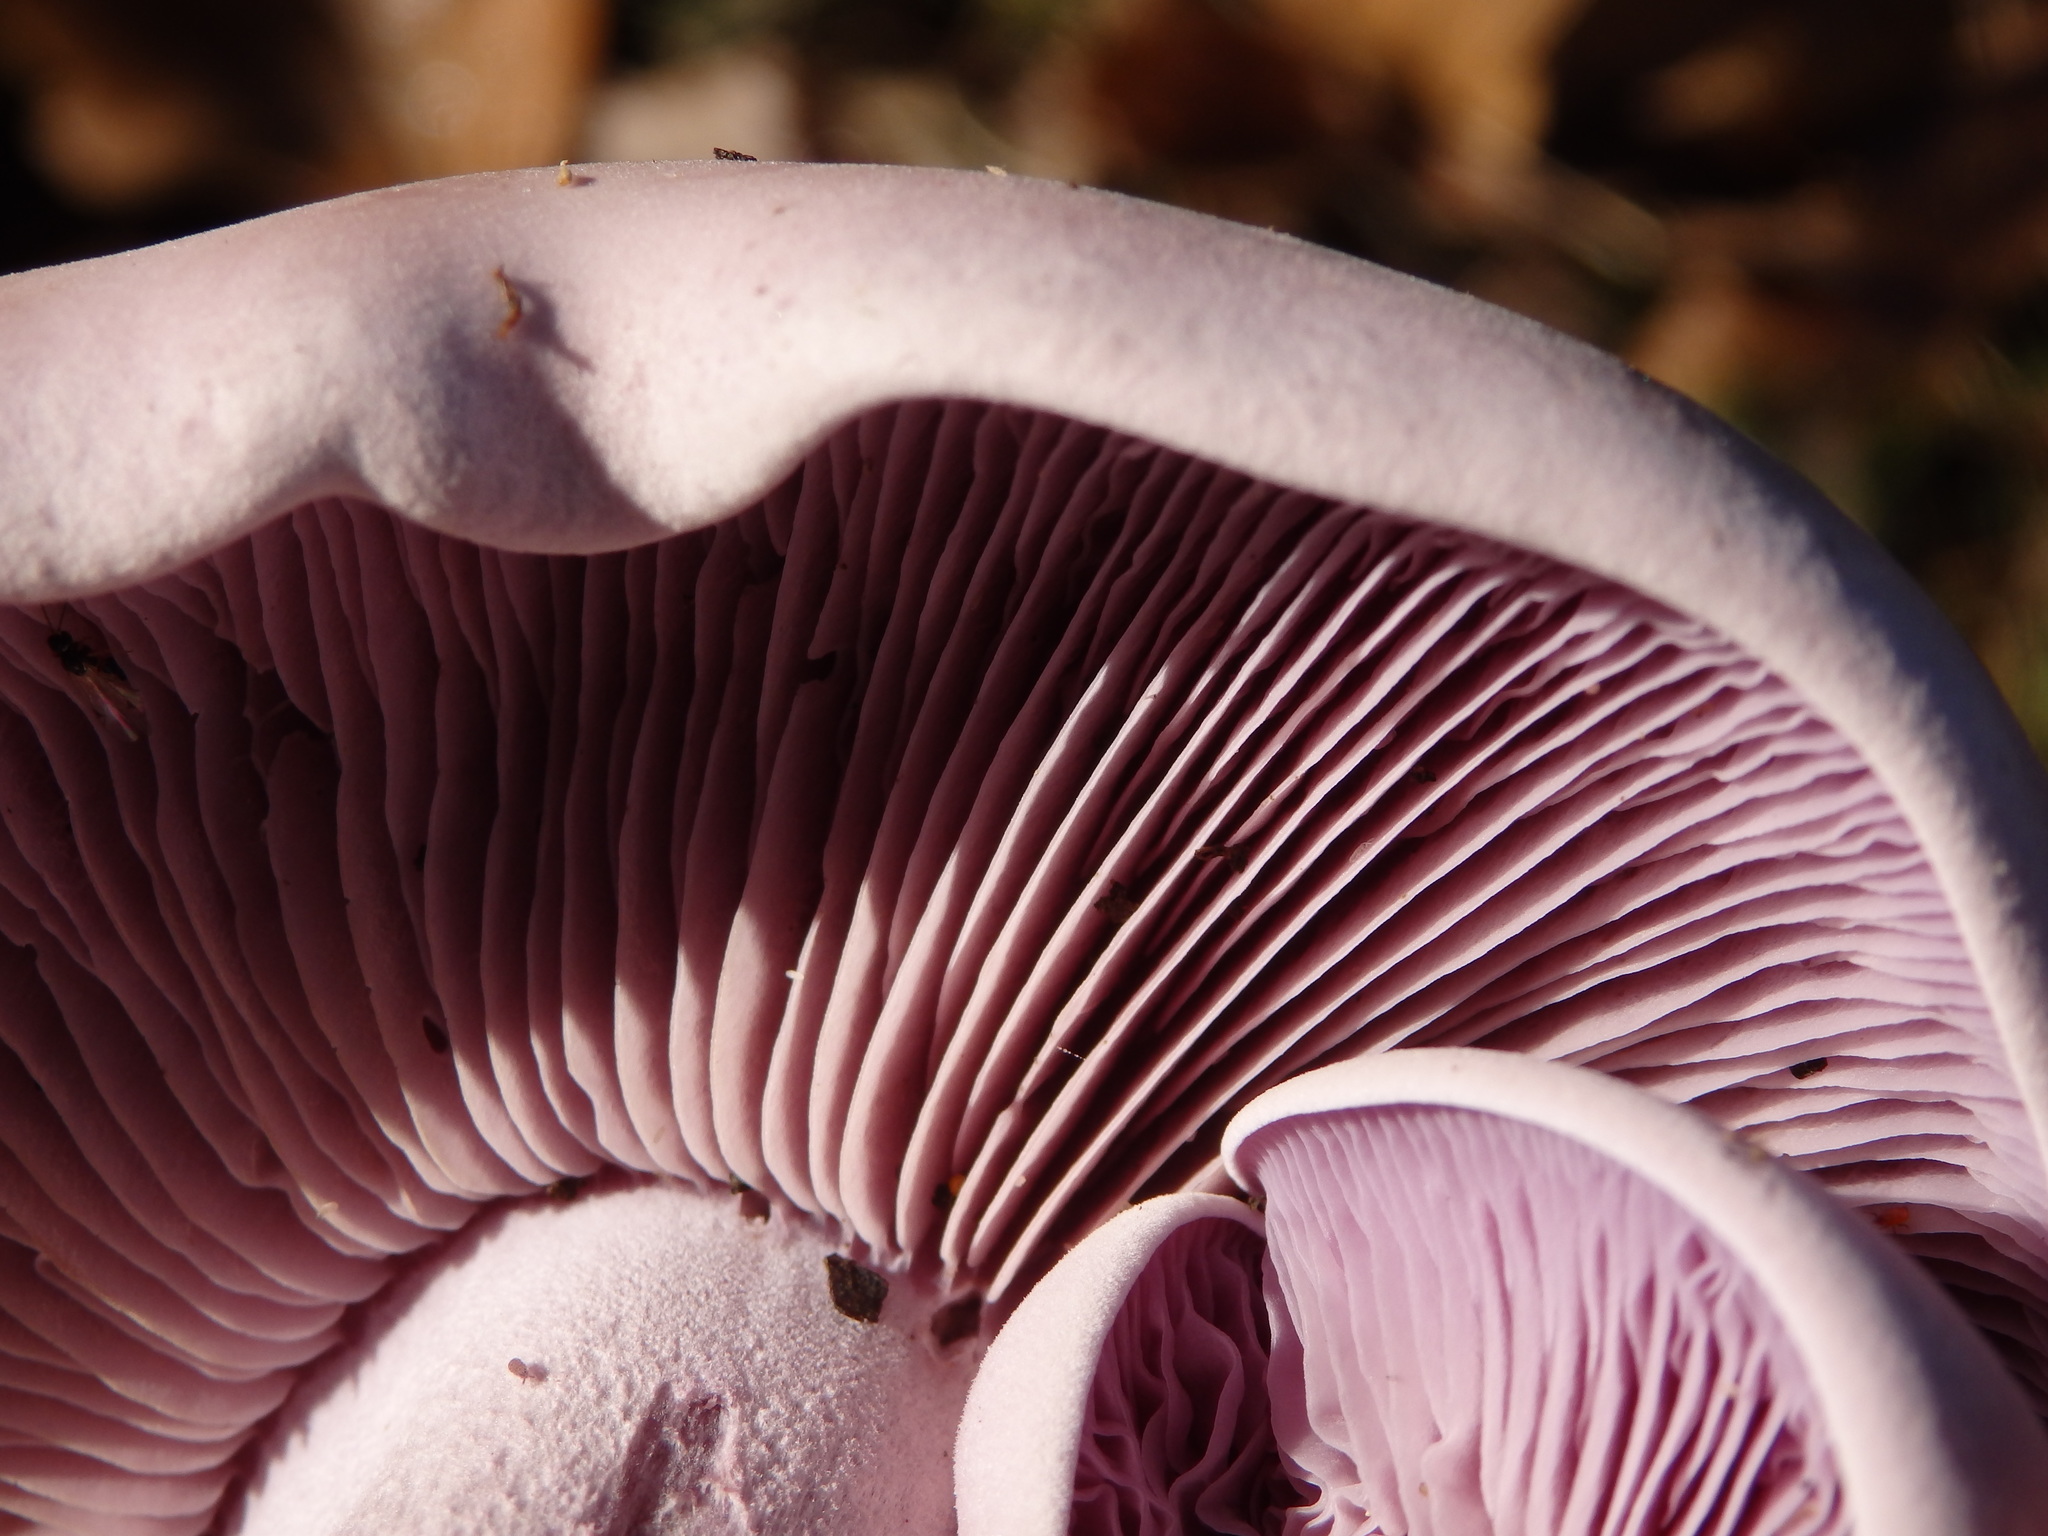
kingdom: Fungi
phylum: Basidiomycota
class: Agaricomycetes
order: Agaricales
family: Tricholomataceae
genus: Collybia
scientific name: Collybia
